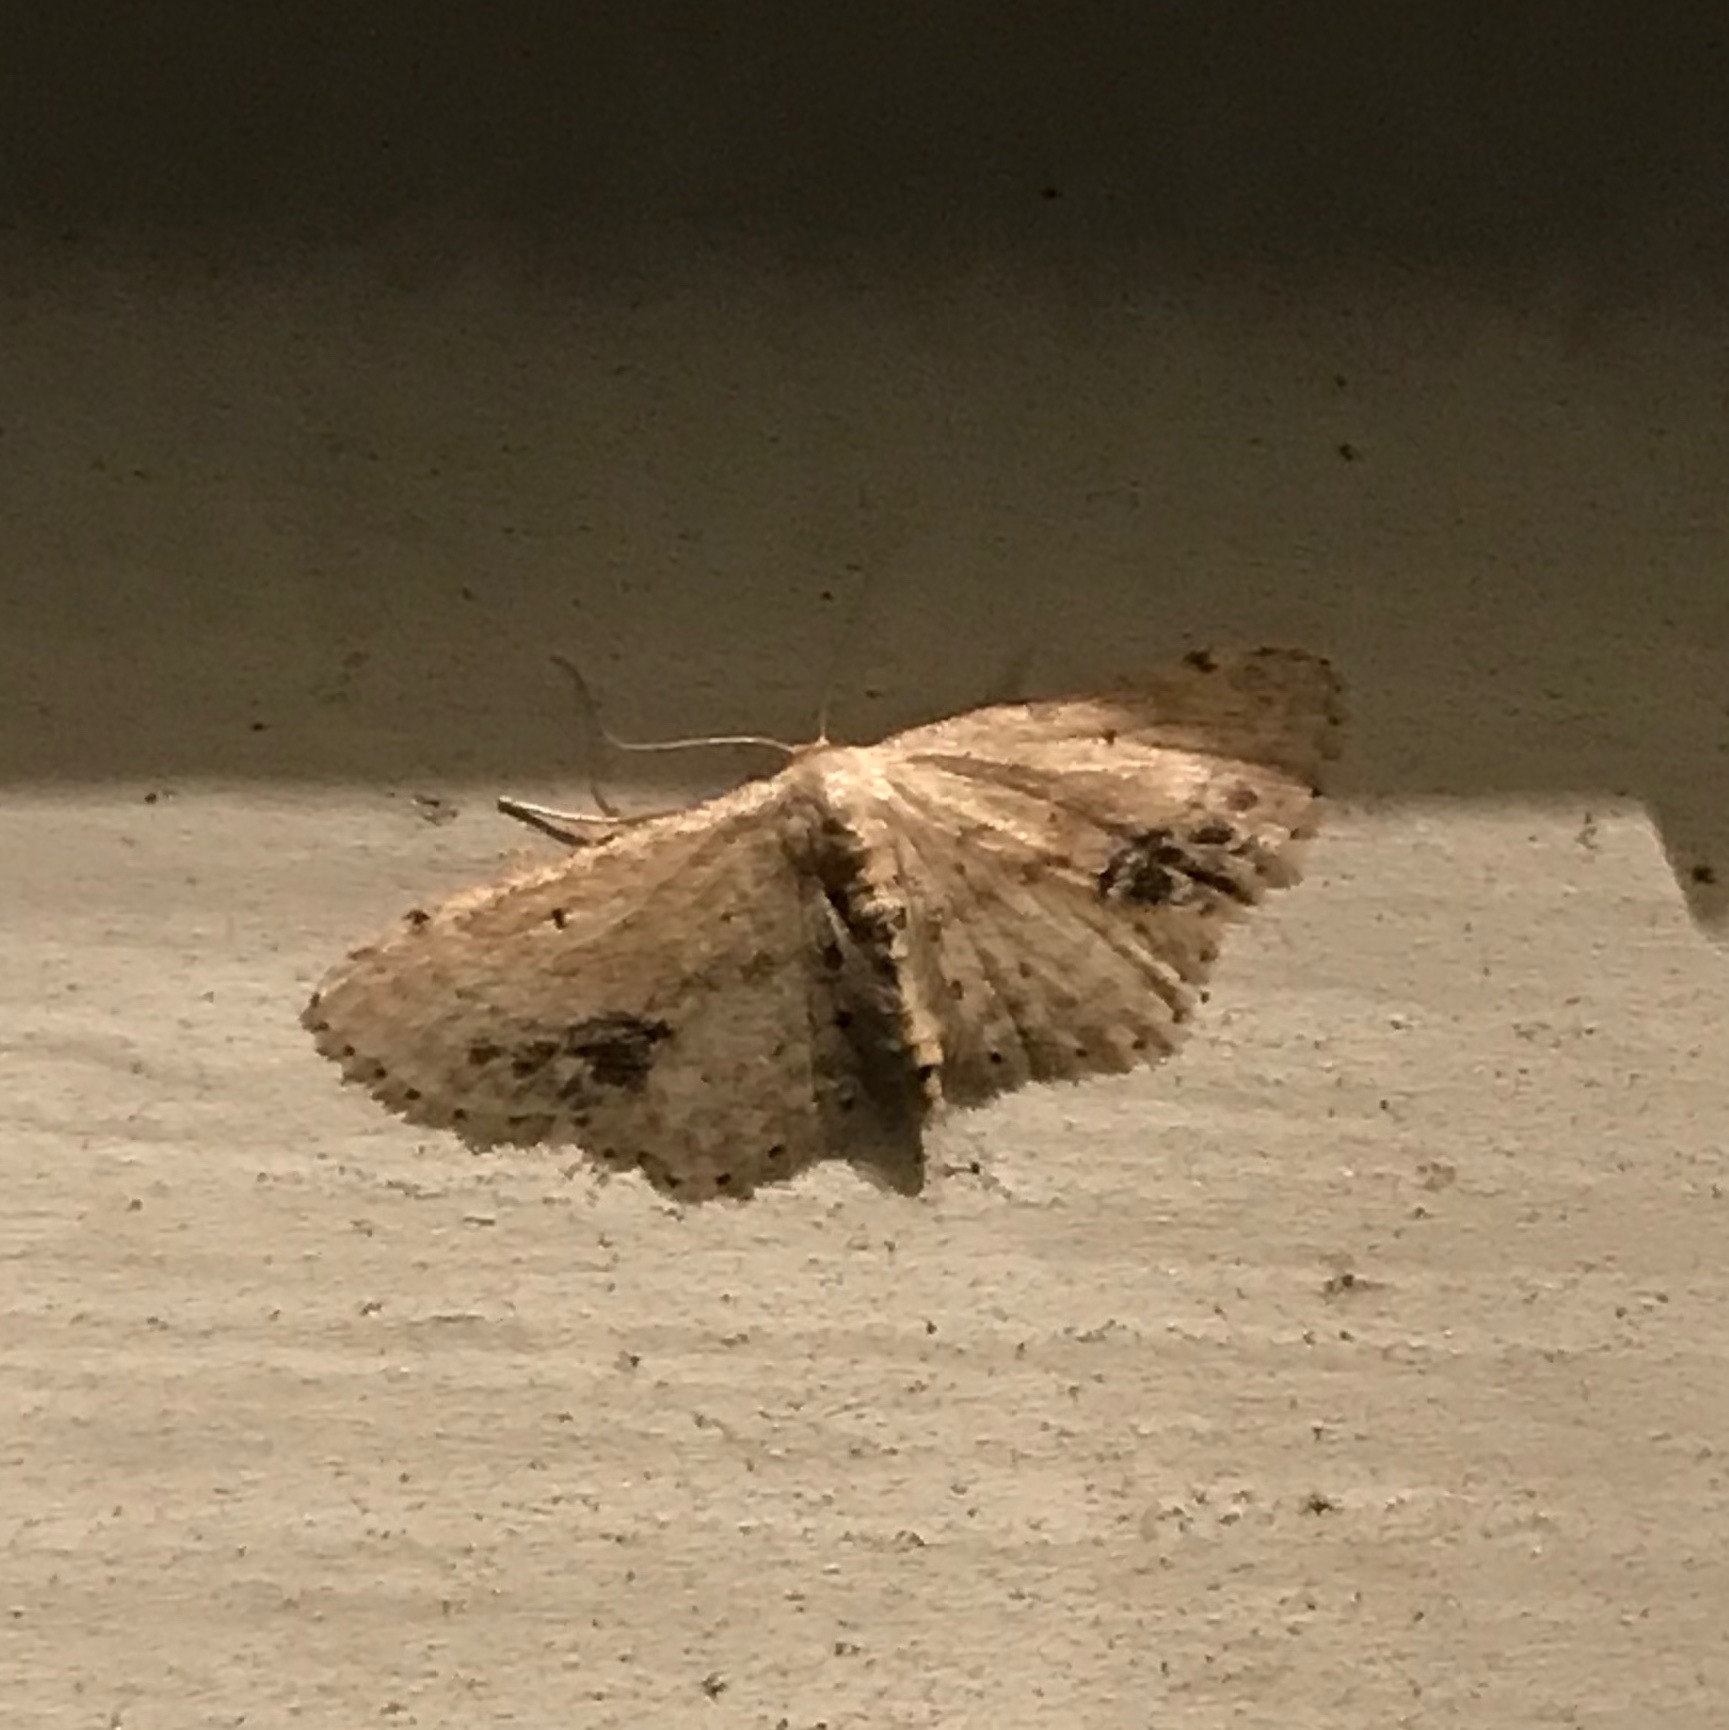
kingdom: Animalia
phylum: Arthropoda
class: Insecta
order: Lepidoptera
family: Geometridae
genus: Idaea
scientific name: Idaea dimidiata
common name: Single-dotted wave
